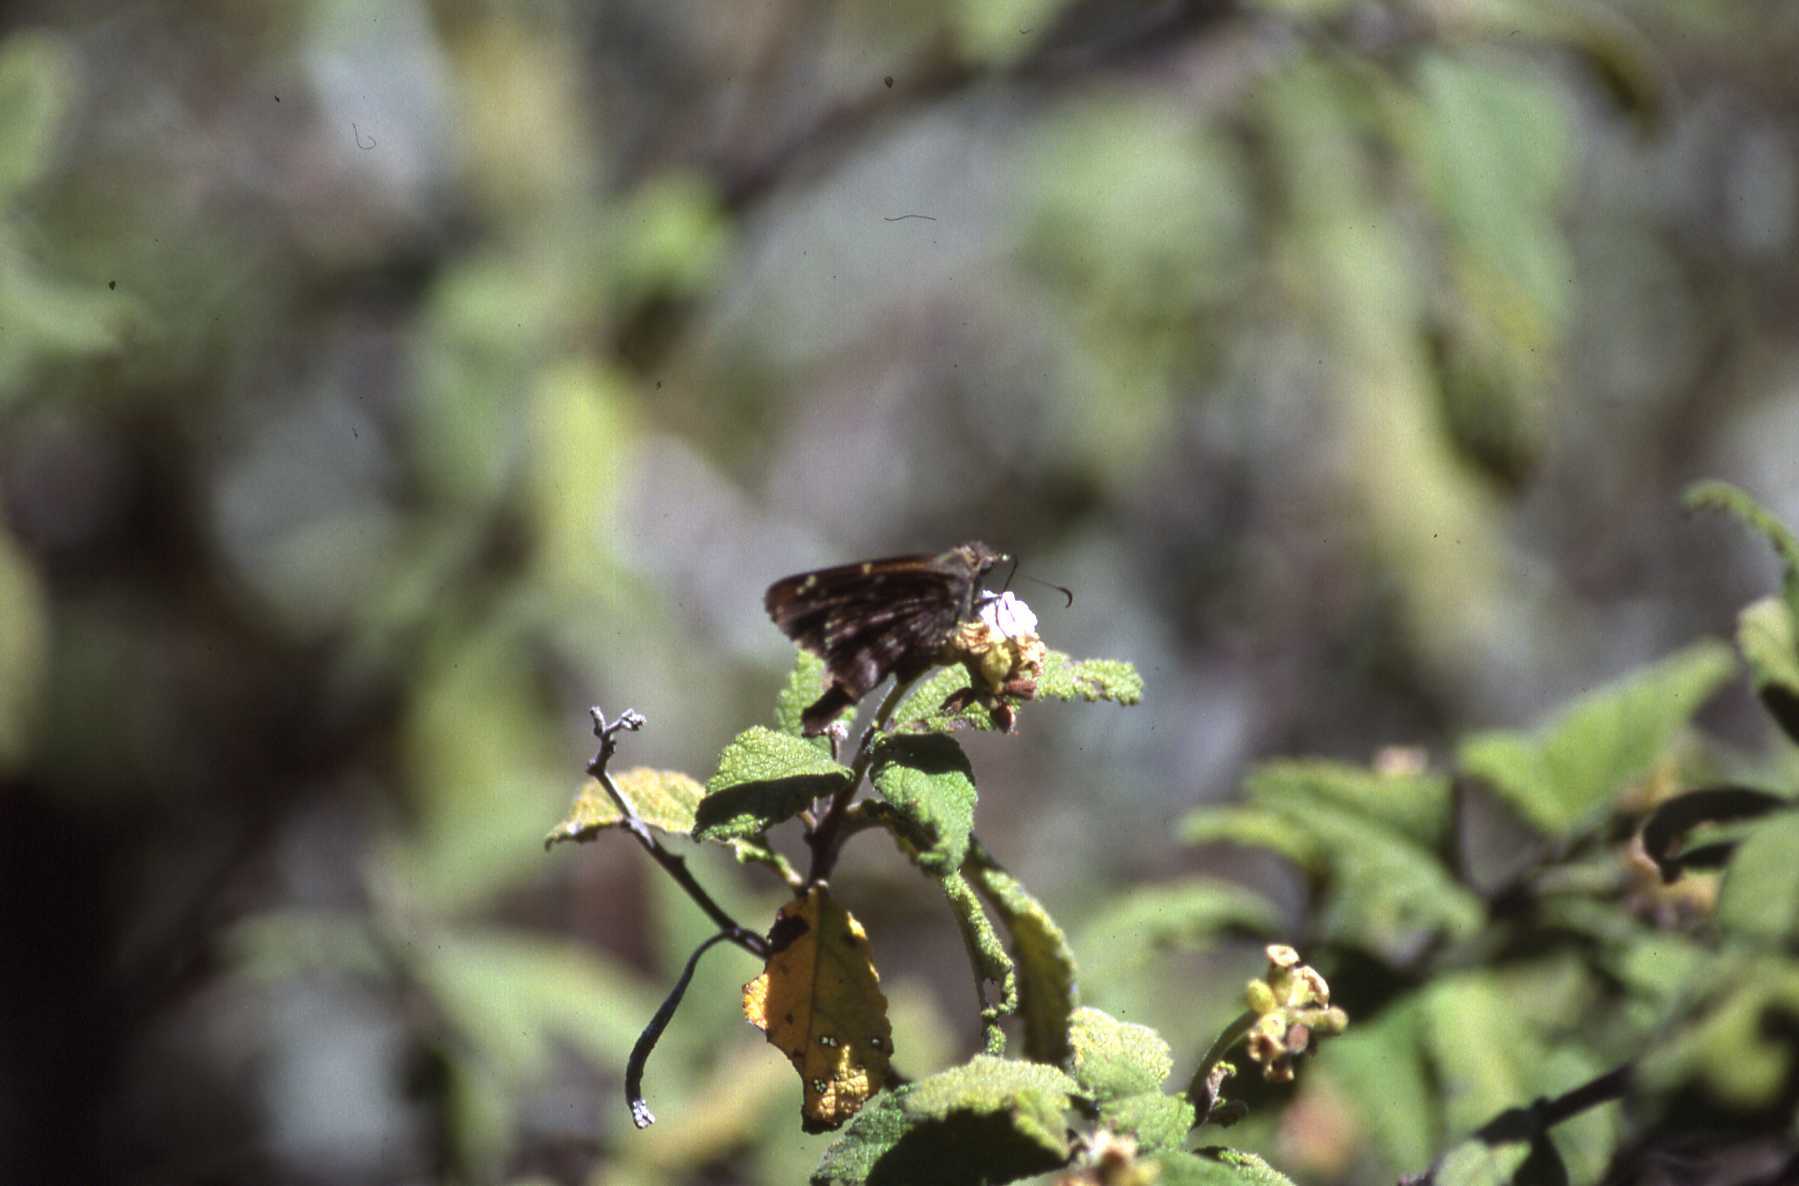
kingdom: Animalia
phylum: Arthropoda
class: Insecta
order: Lepidoptera
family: Hesperiidae
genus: Thorybes
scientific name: Thorybes
